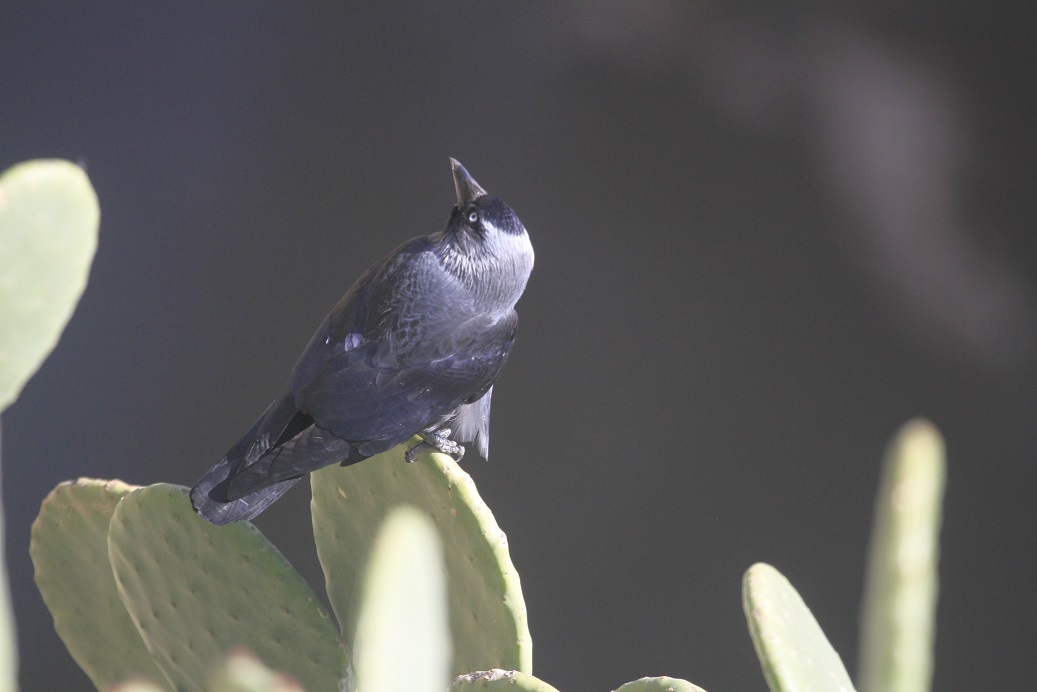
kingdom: Animalia
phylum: Chordata
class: Aves
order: Passeriformes
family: Corvidae
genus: Coloeus
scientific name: Coloeus monedula
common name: Western jackdaw
